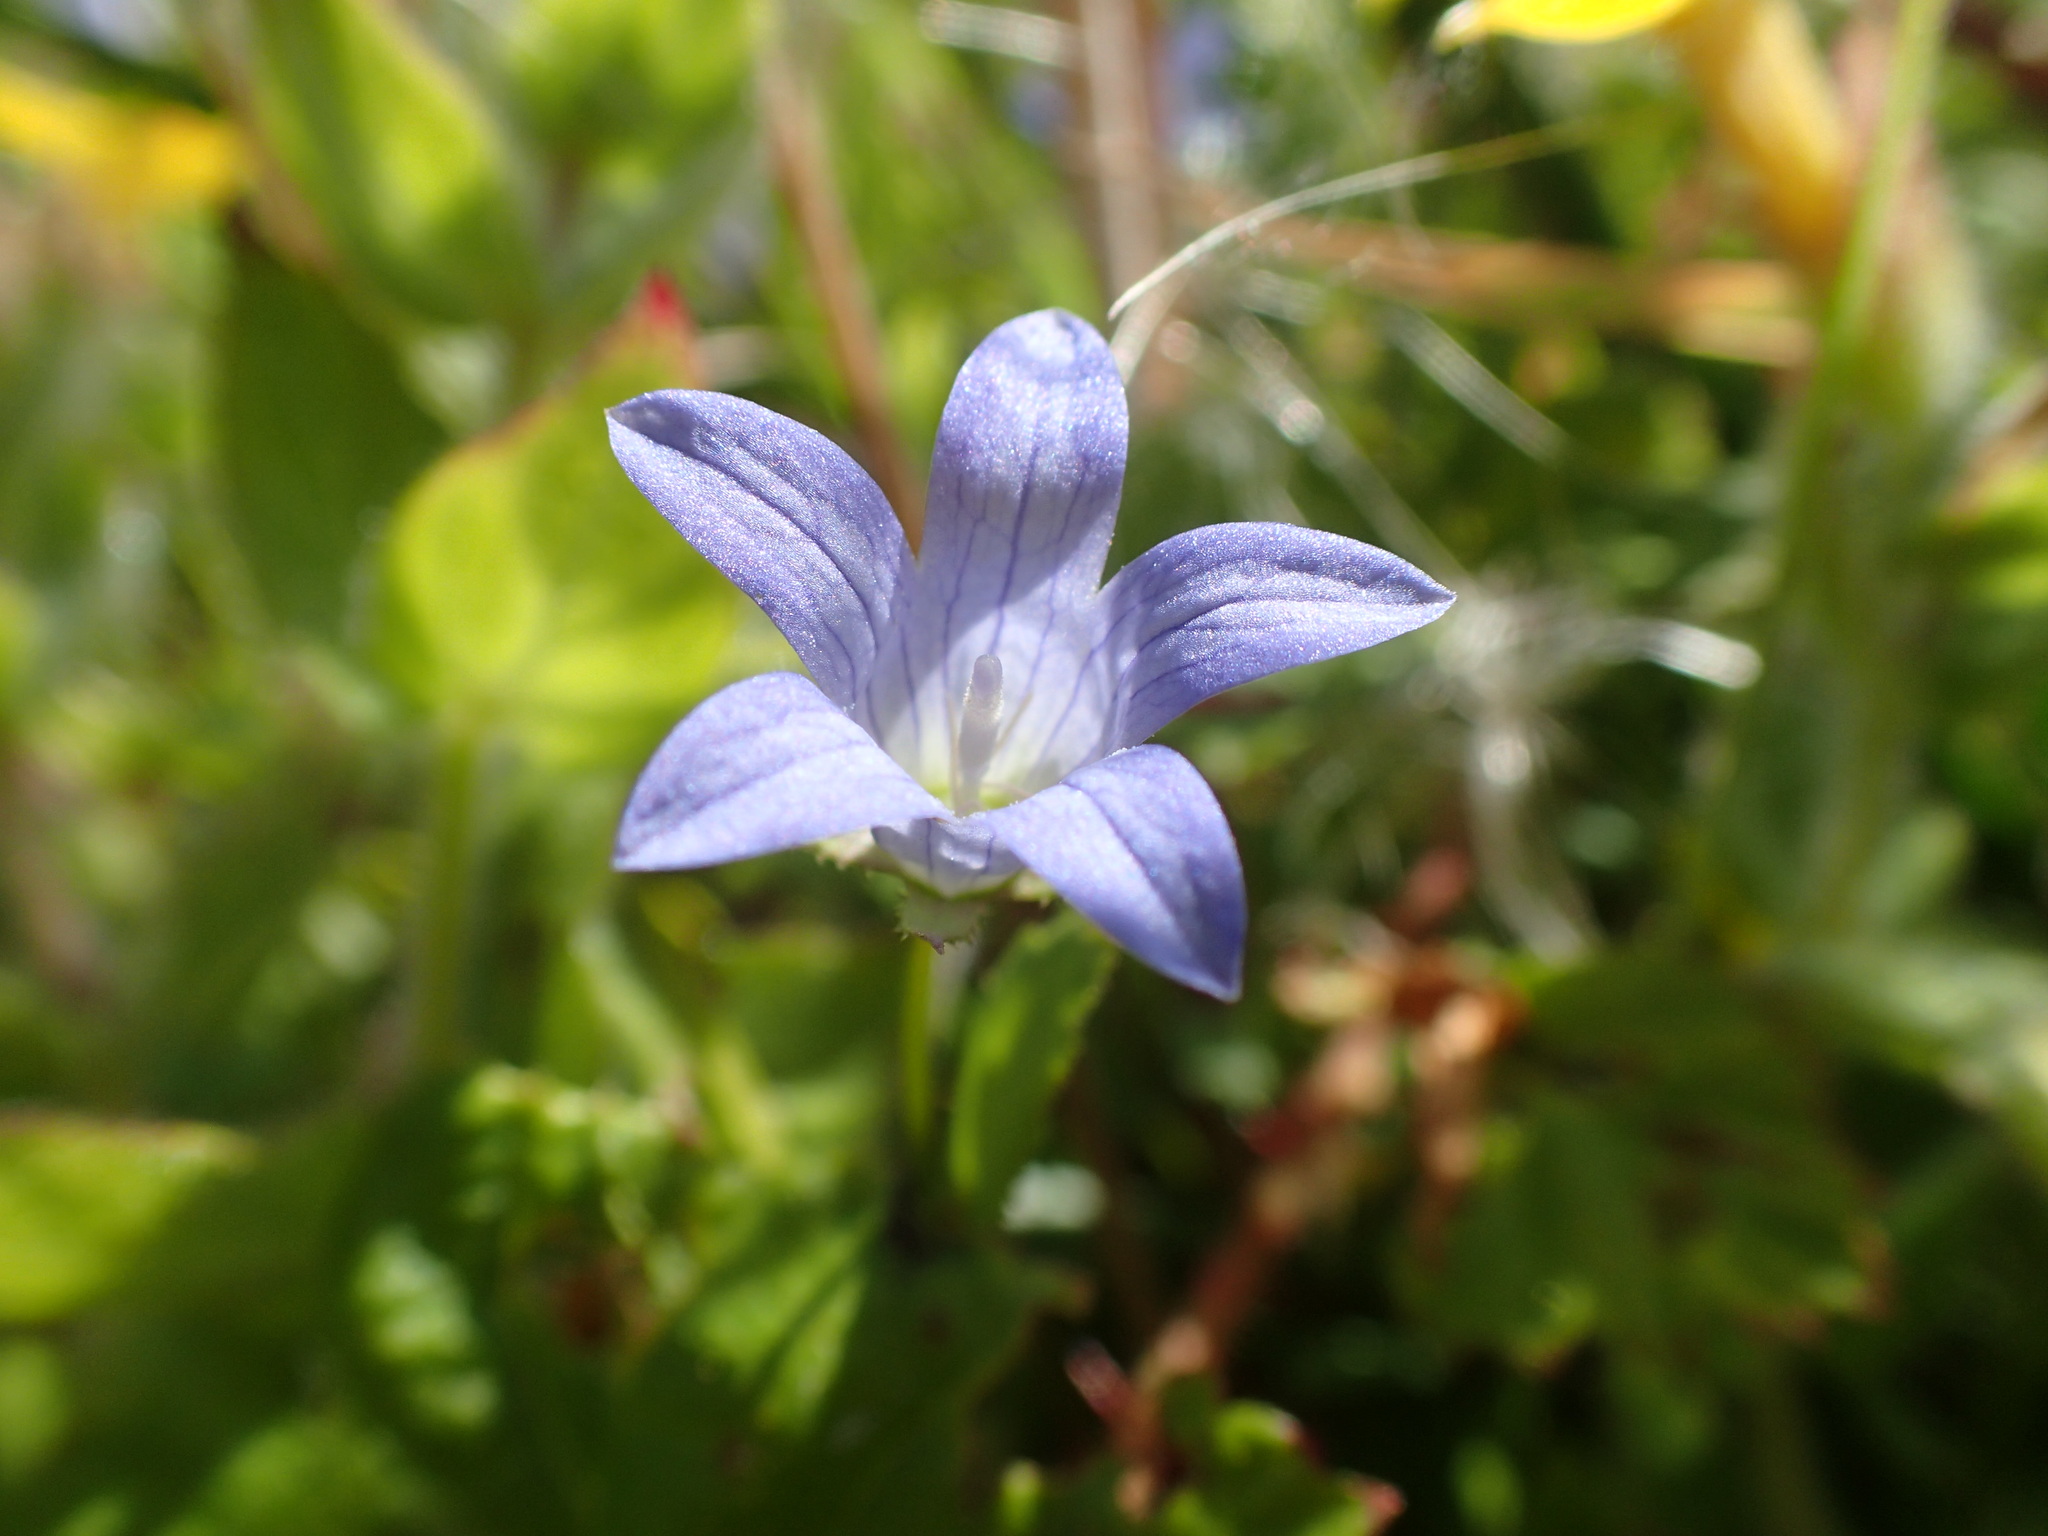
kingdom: Plantae
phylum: Tracheophyta
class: Magnoliopsida
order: Asterales
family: Campanulaceae
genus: Eastwoodiella
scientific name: Eastwoodiella californica
